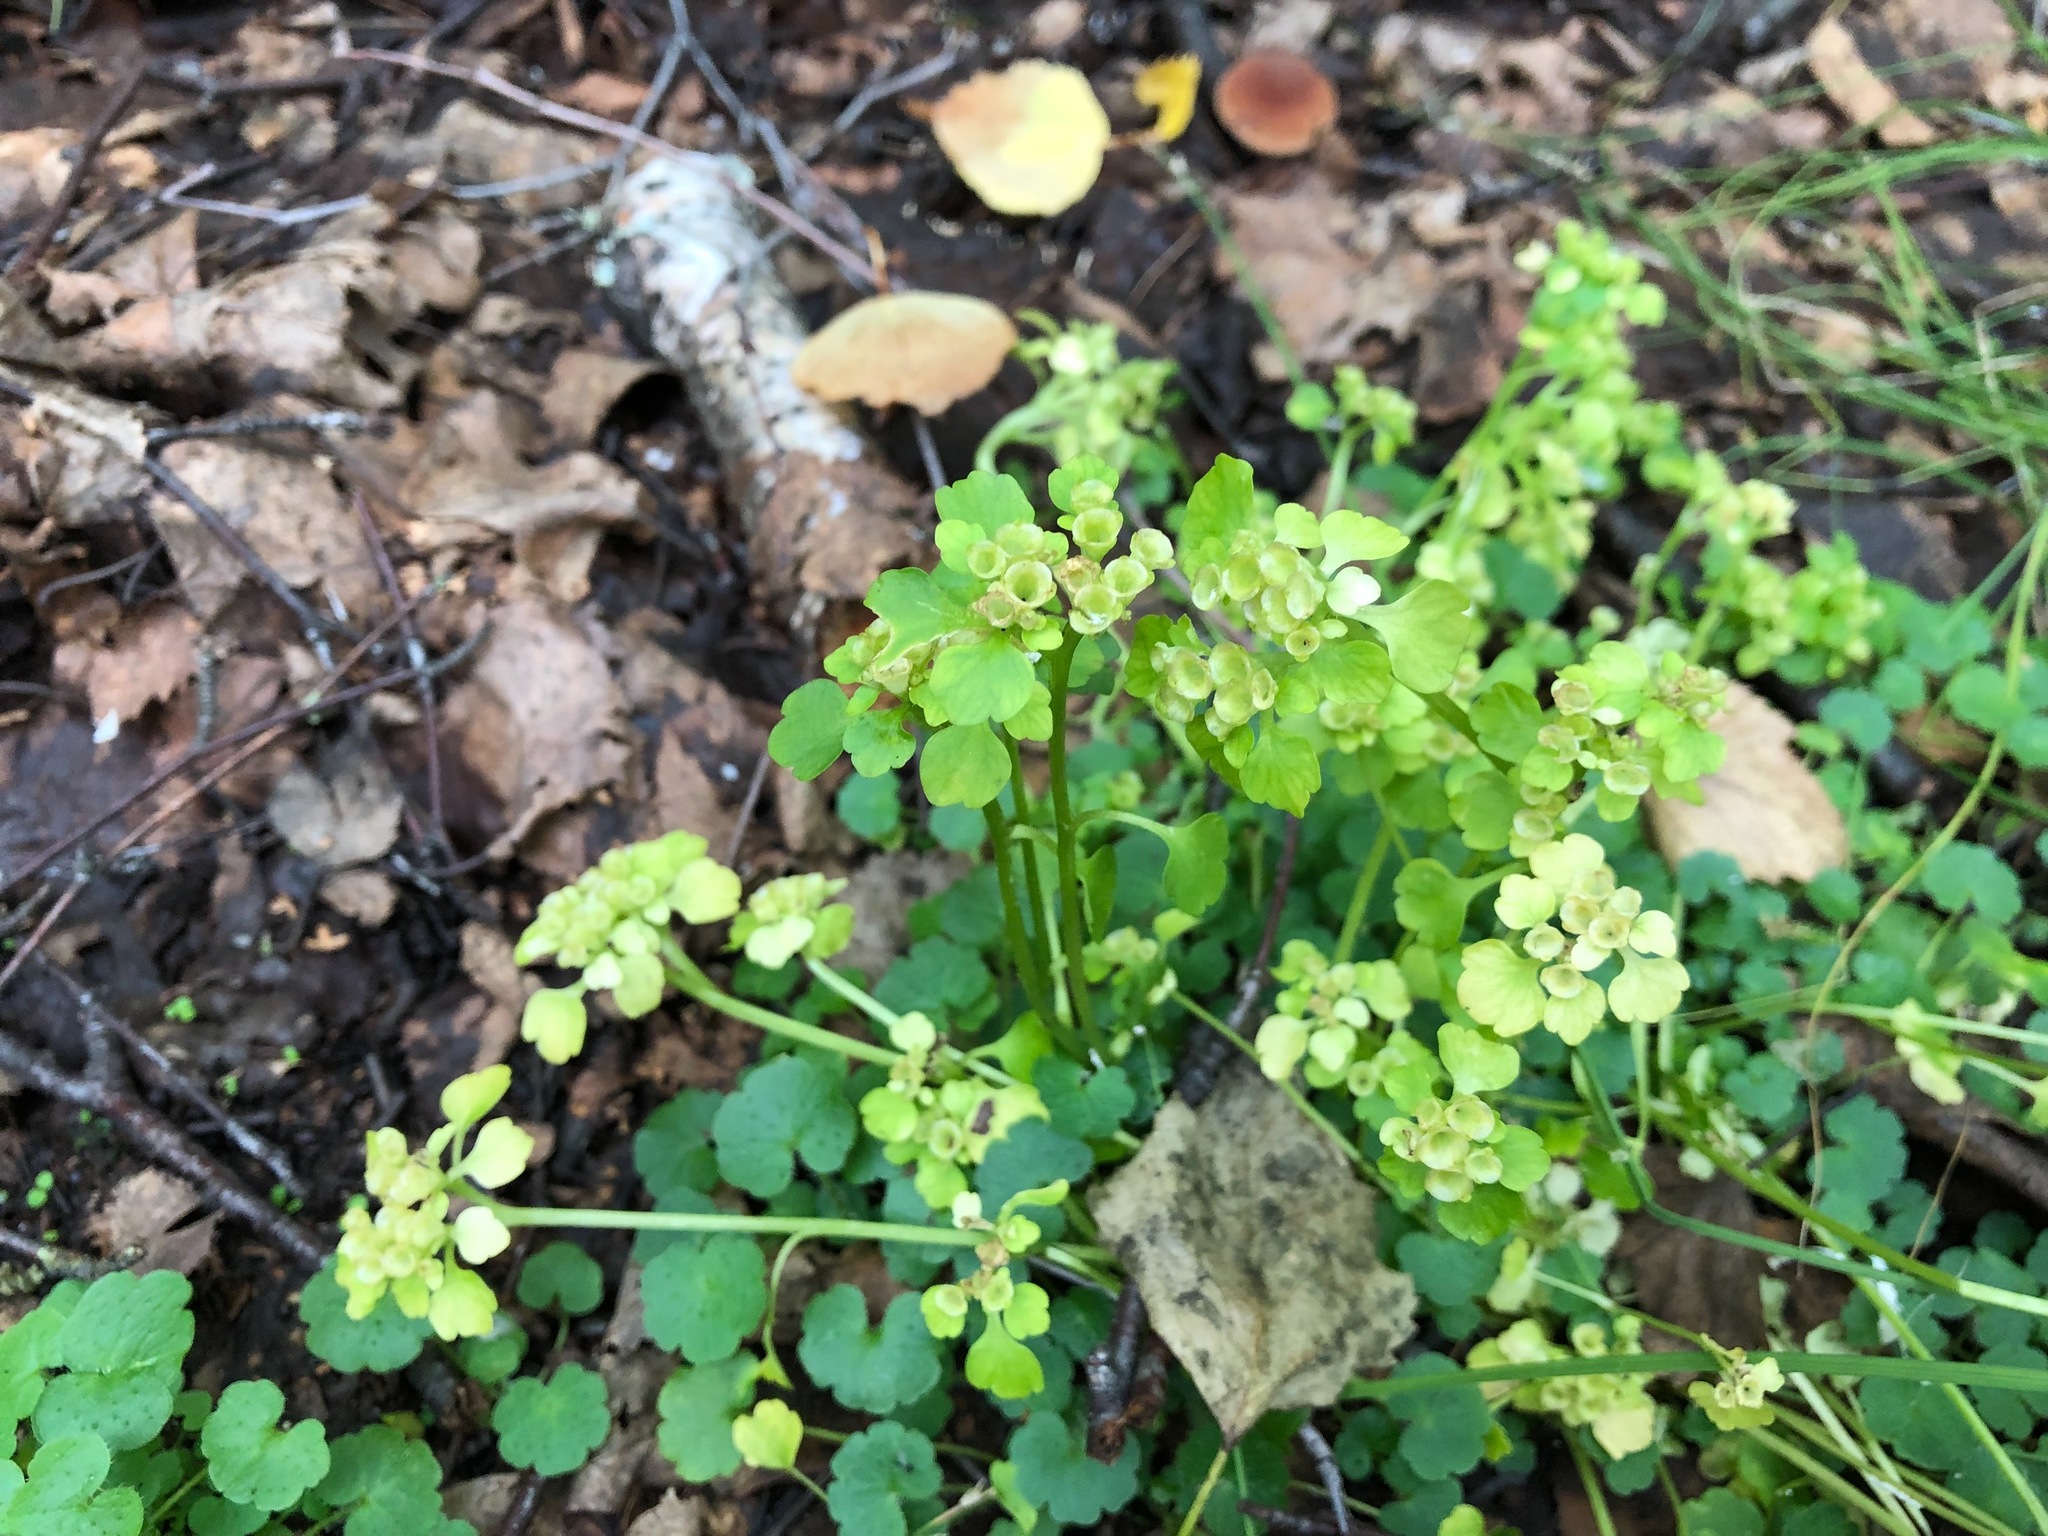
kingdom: Plantae
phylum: Tracheophyta
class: Magnoliopsida
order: Saxifragales
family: Saxifragaceae
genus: Chrysosplenium
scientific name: Chrysosplenium tetrandrum
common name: Green saxifrage
